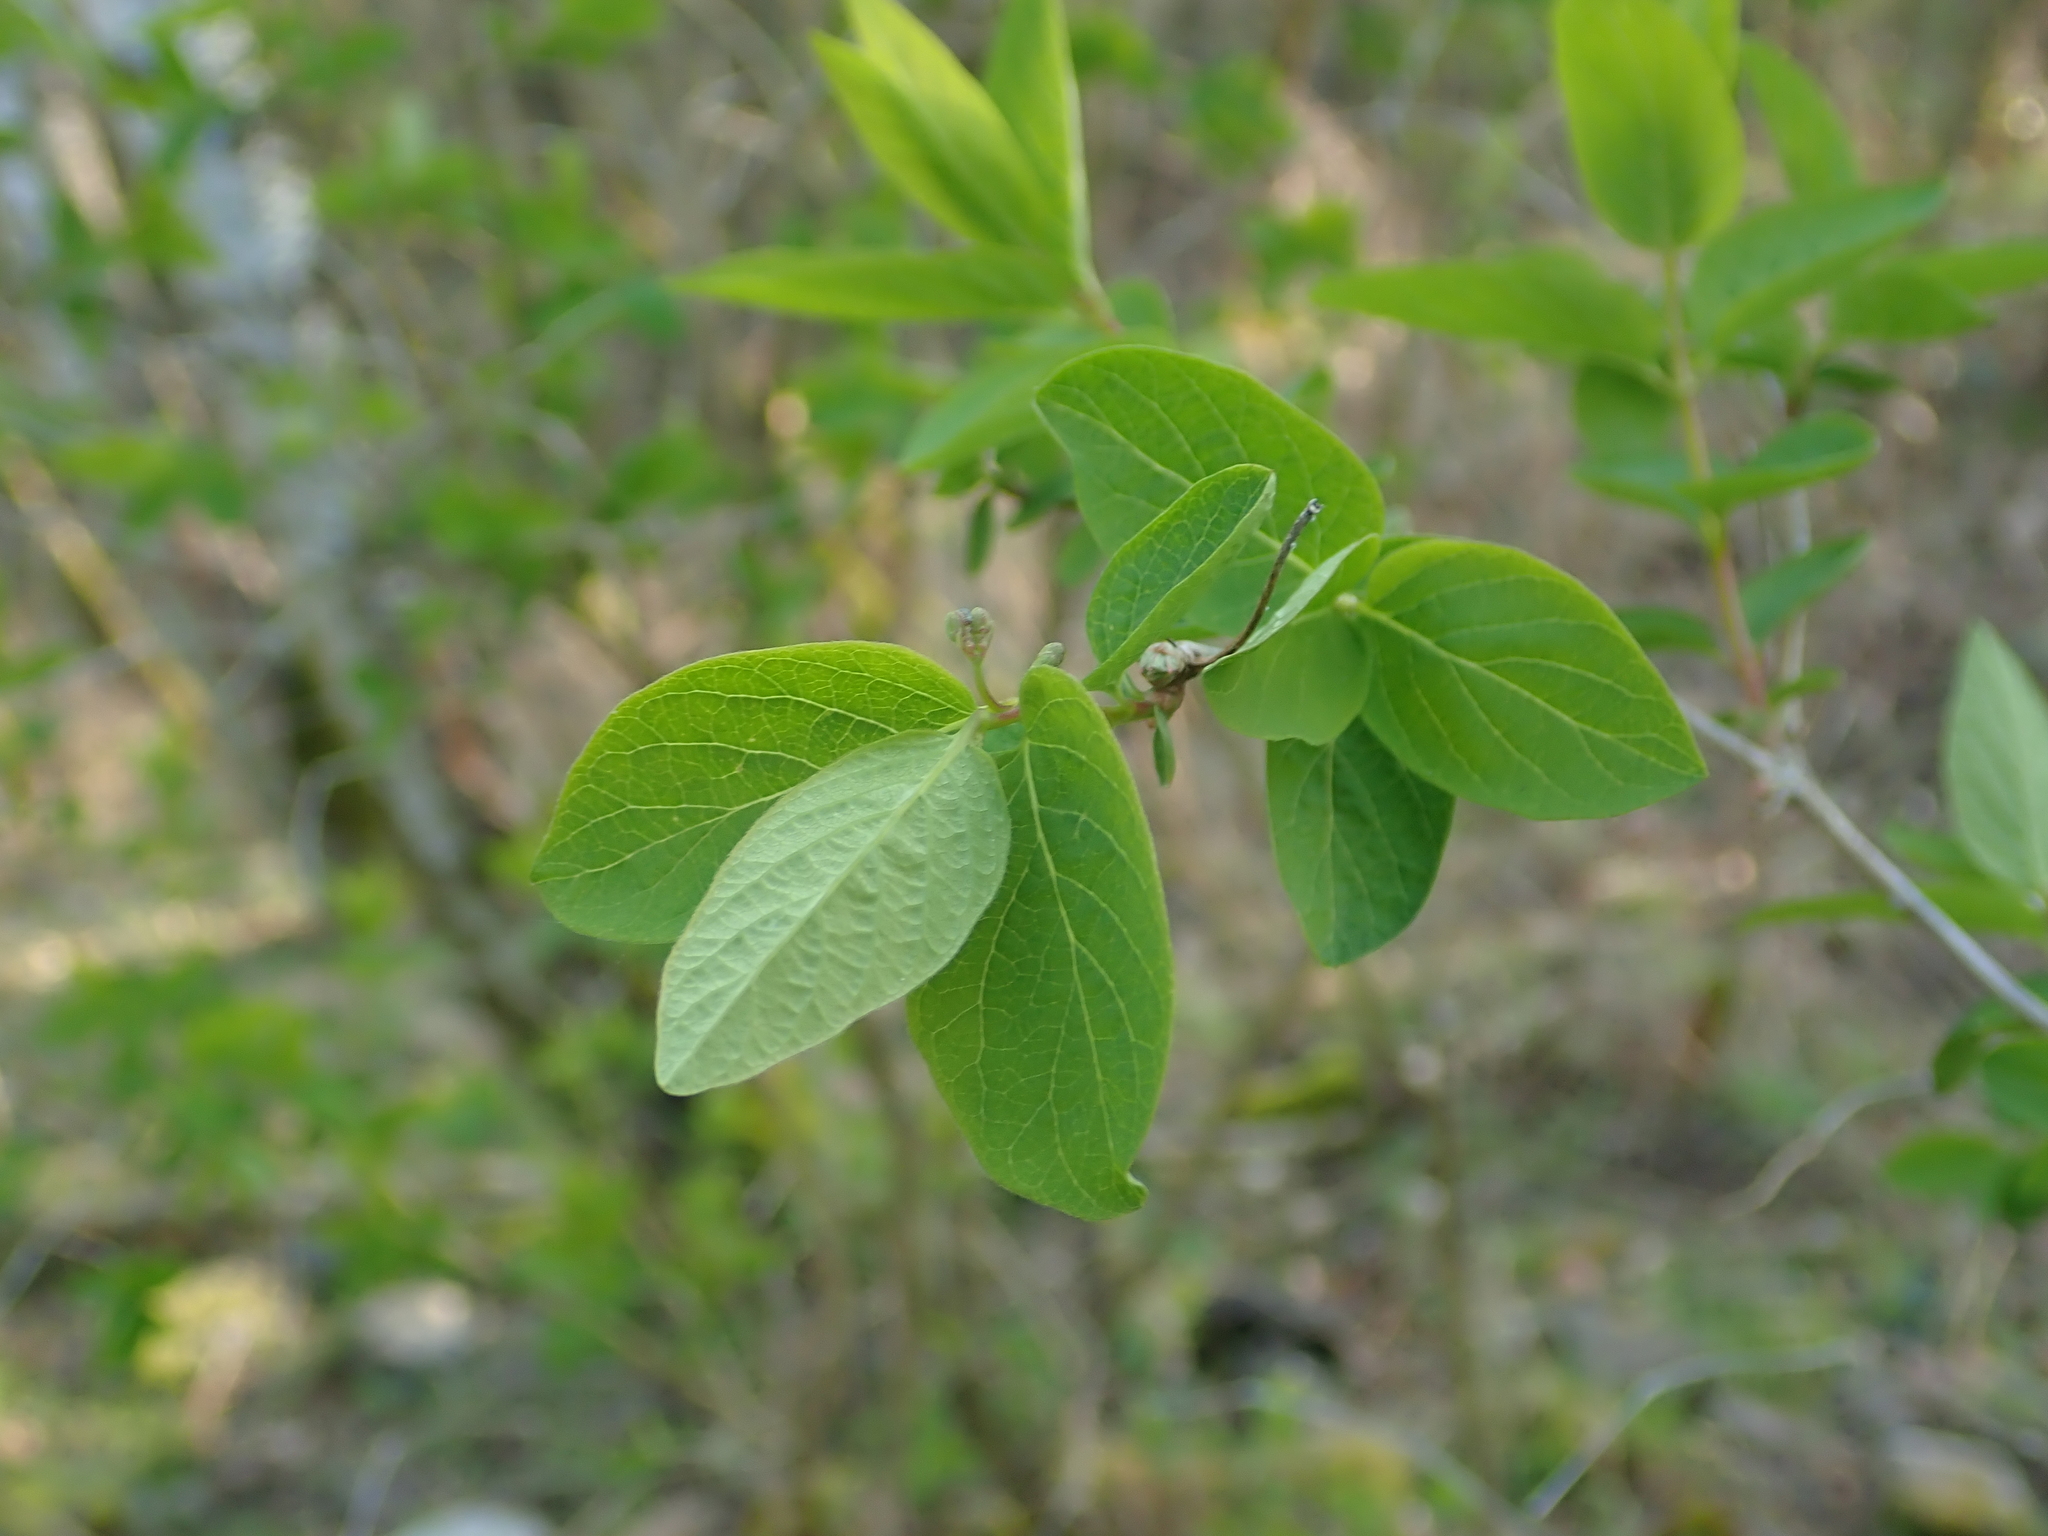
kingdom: Plantae
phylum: Tracheophyta
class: Magnoliopsida
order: Dipsacales
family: Caprifoliaceae
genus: Lonicera
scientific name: Lonicera xylosteum
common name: Fly honeysuckle
